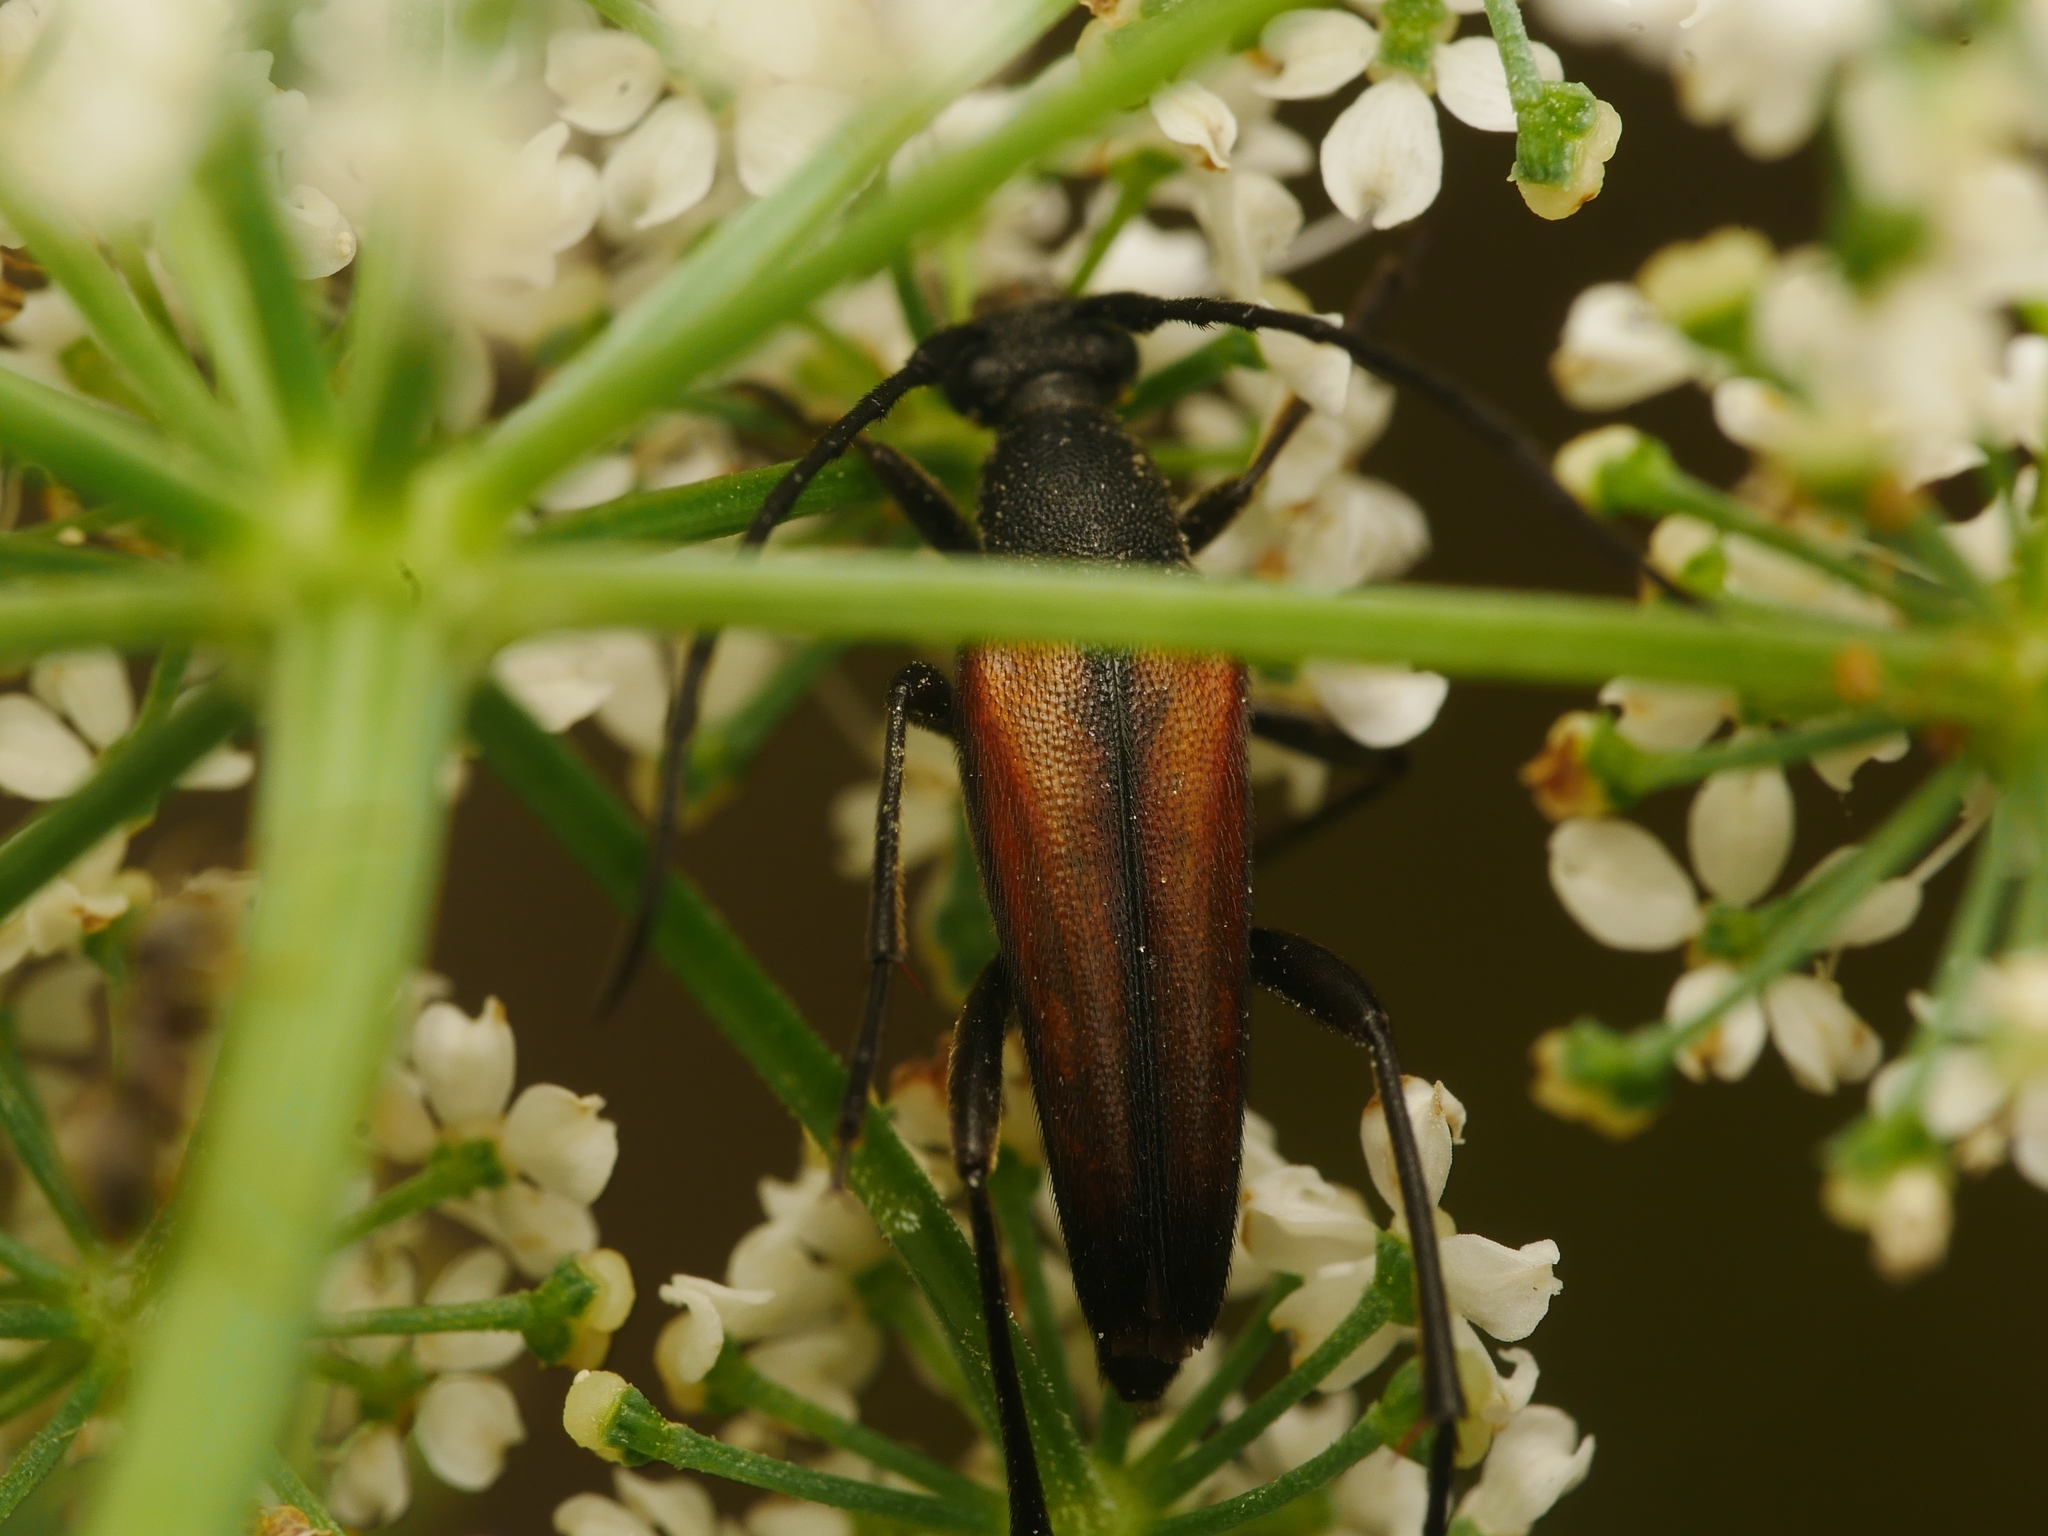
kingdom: Animalia
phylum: Arthropoda
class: Insecta
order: Coleoptera
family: Cerambycidae
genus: Stenurella
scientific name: Stenurella melanura
